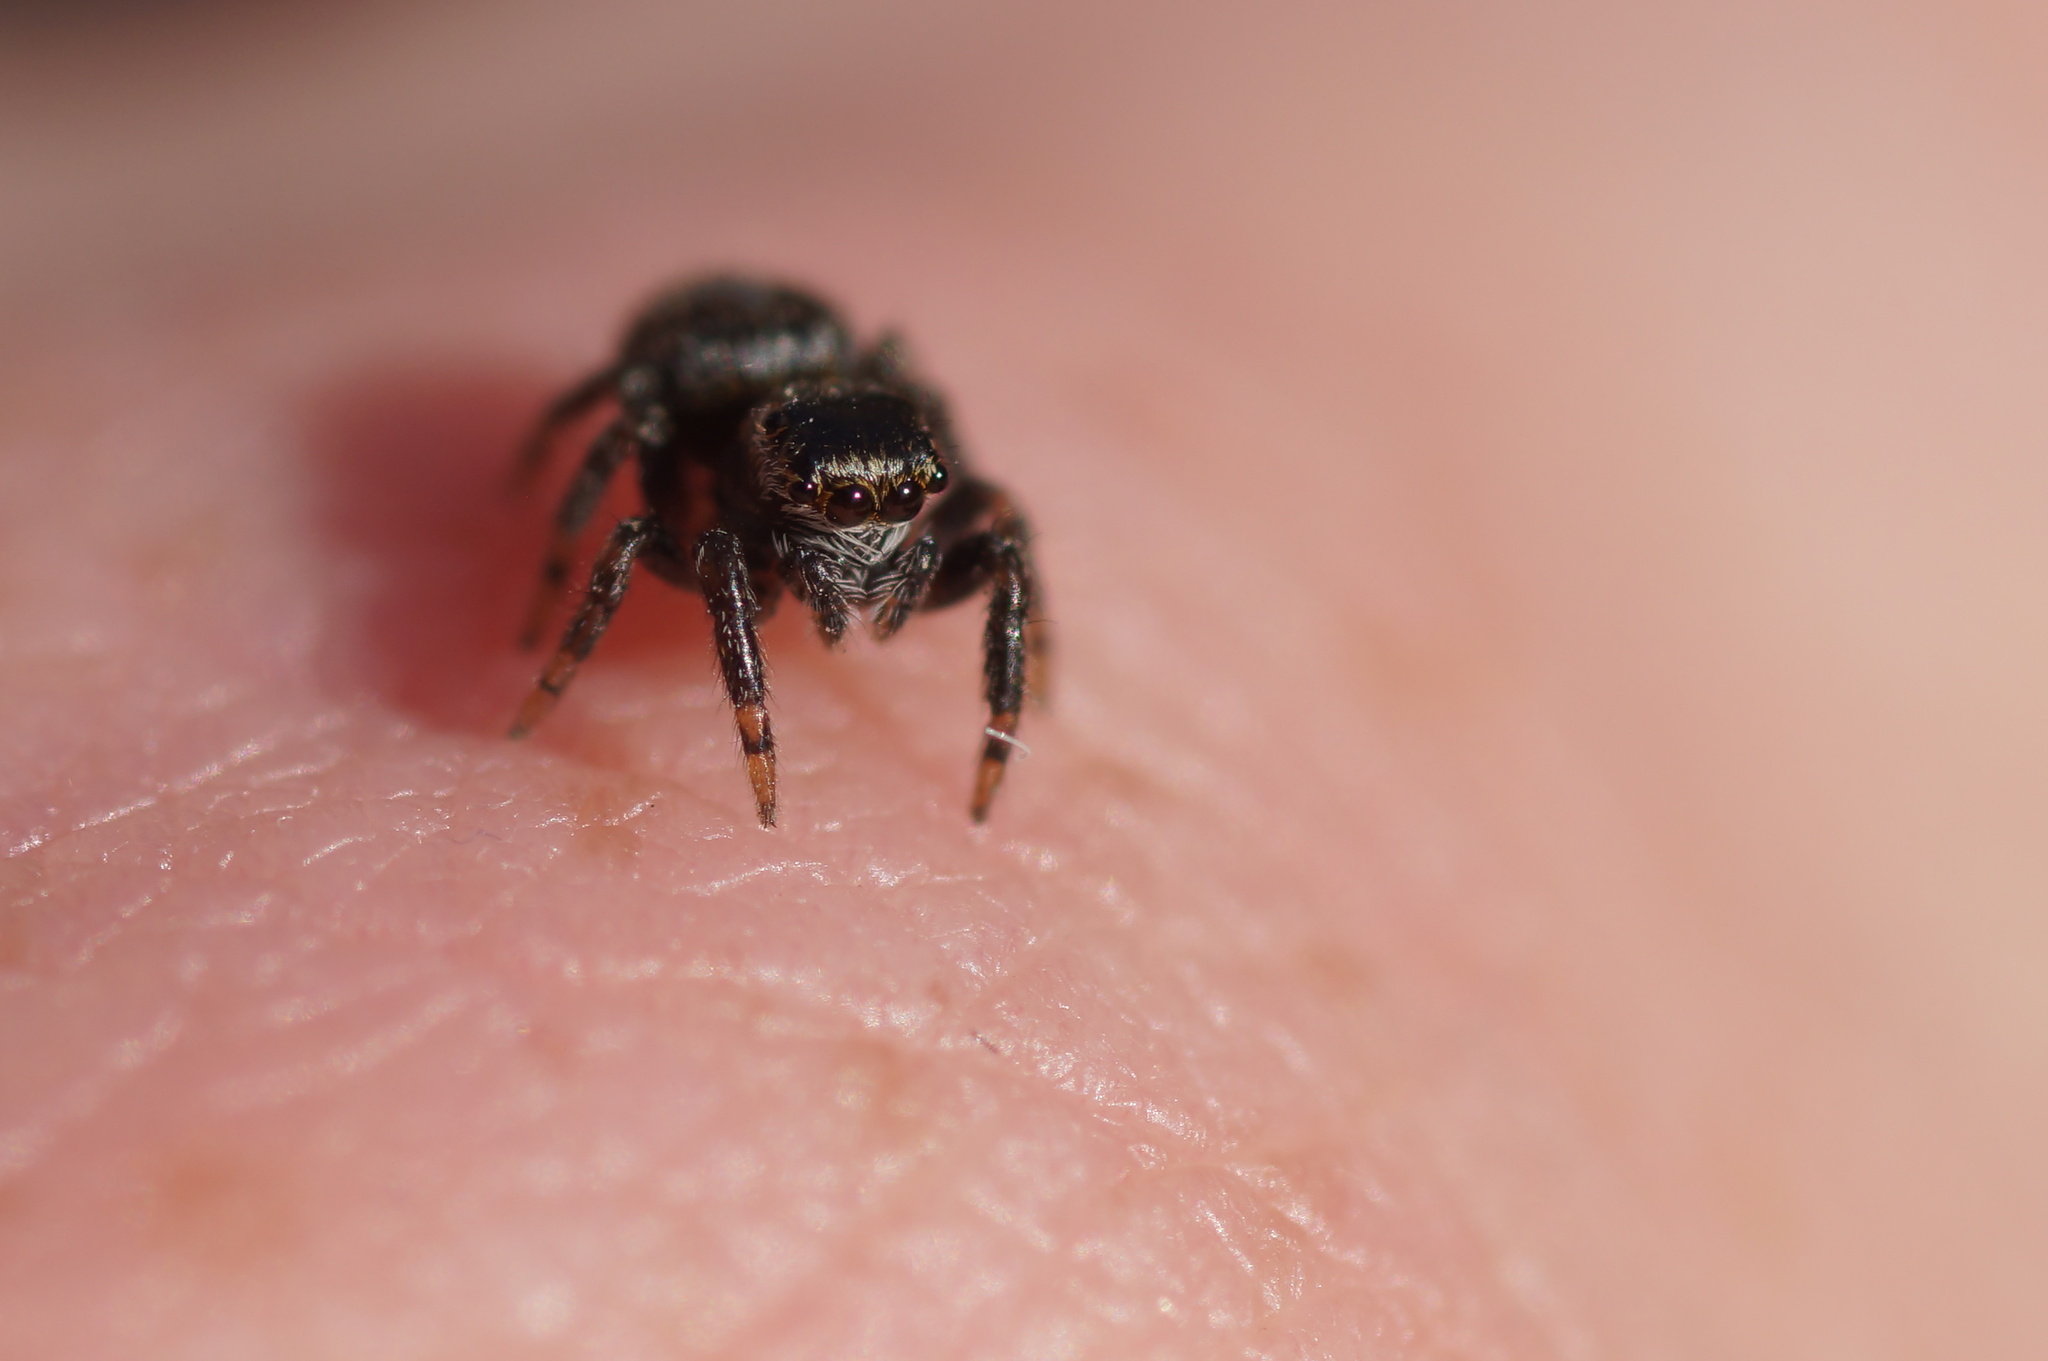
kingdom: Animalia
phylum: Arthropoda
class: Arachnida
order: Araneae
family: Salticidae
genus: Evarcha
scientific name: Evarcha arcuata
